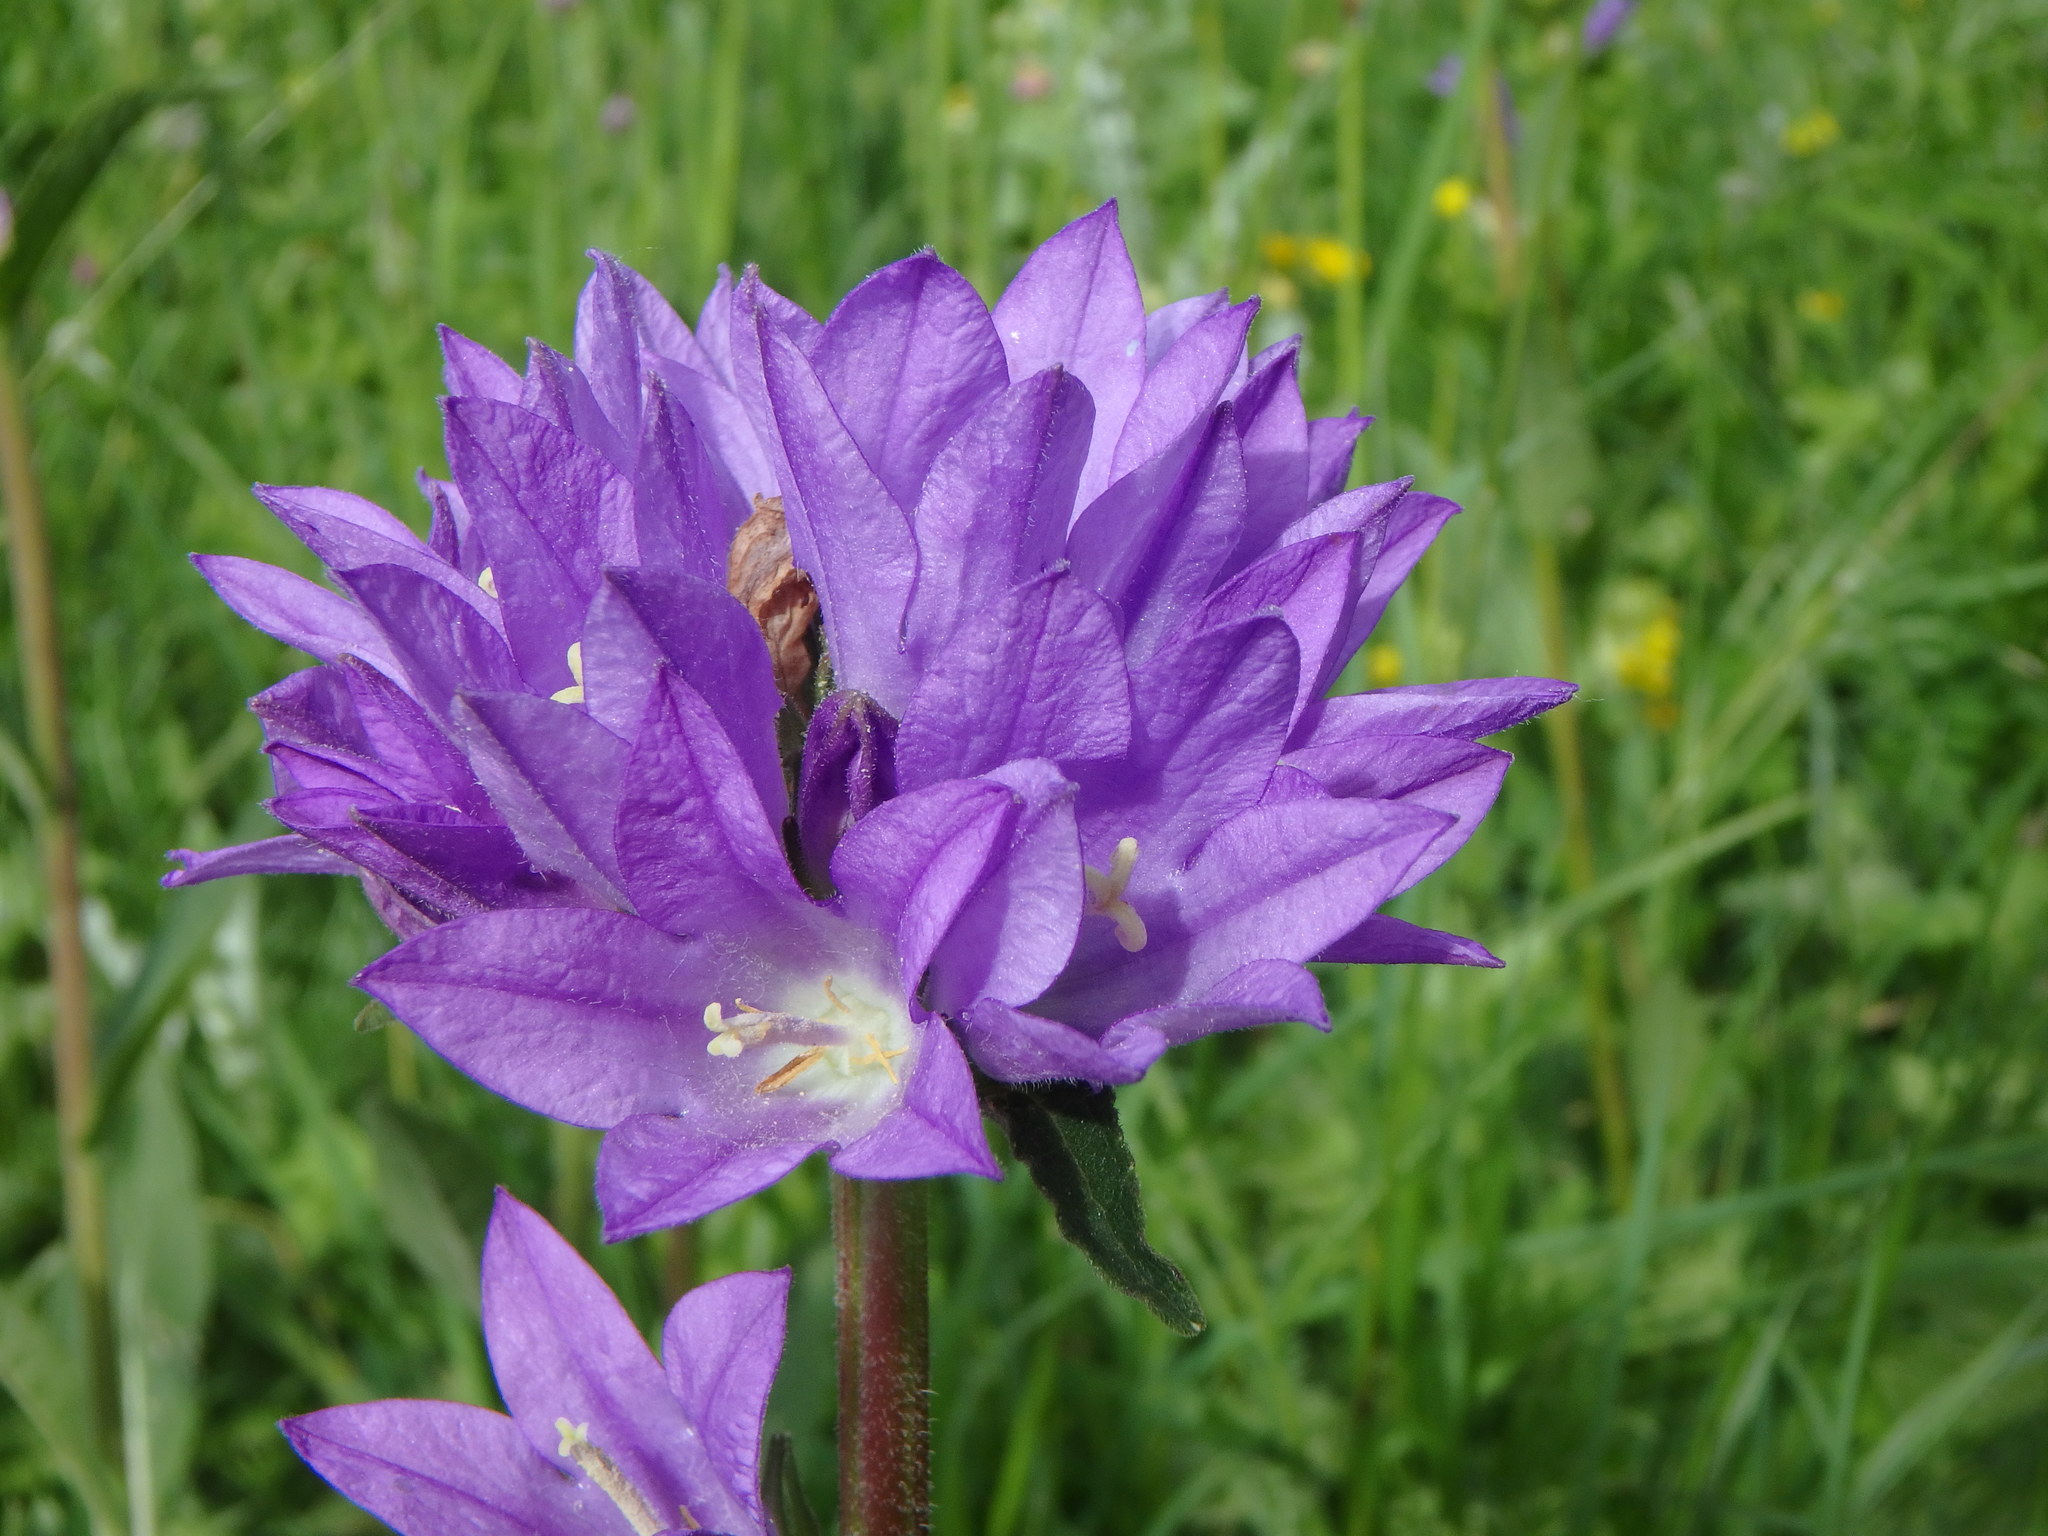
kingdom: Plantae
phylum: Tracheophyta
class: Magnoliopsida
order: Asterales
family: Campanulaceae
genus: Campanula
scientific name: Campanula glomerata
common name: Clustered bellflower
